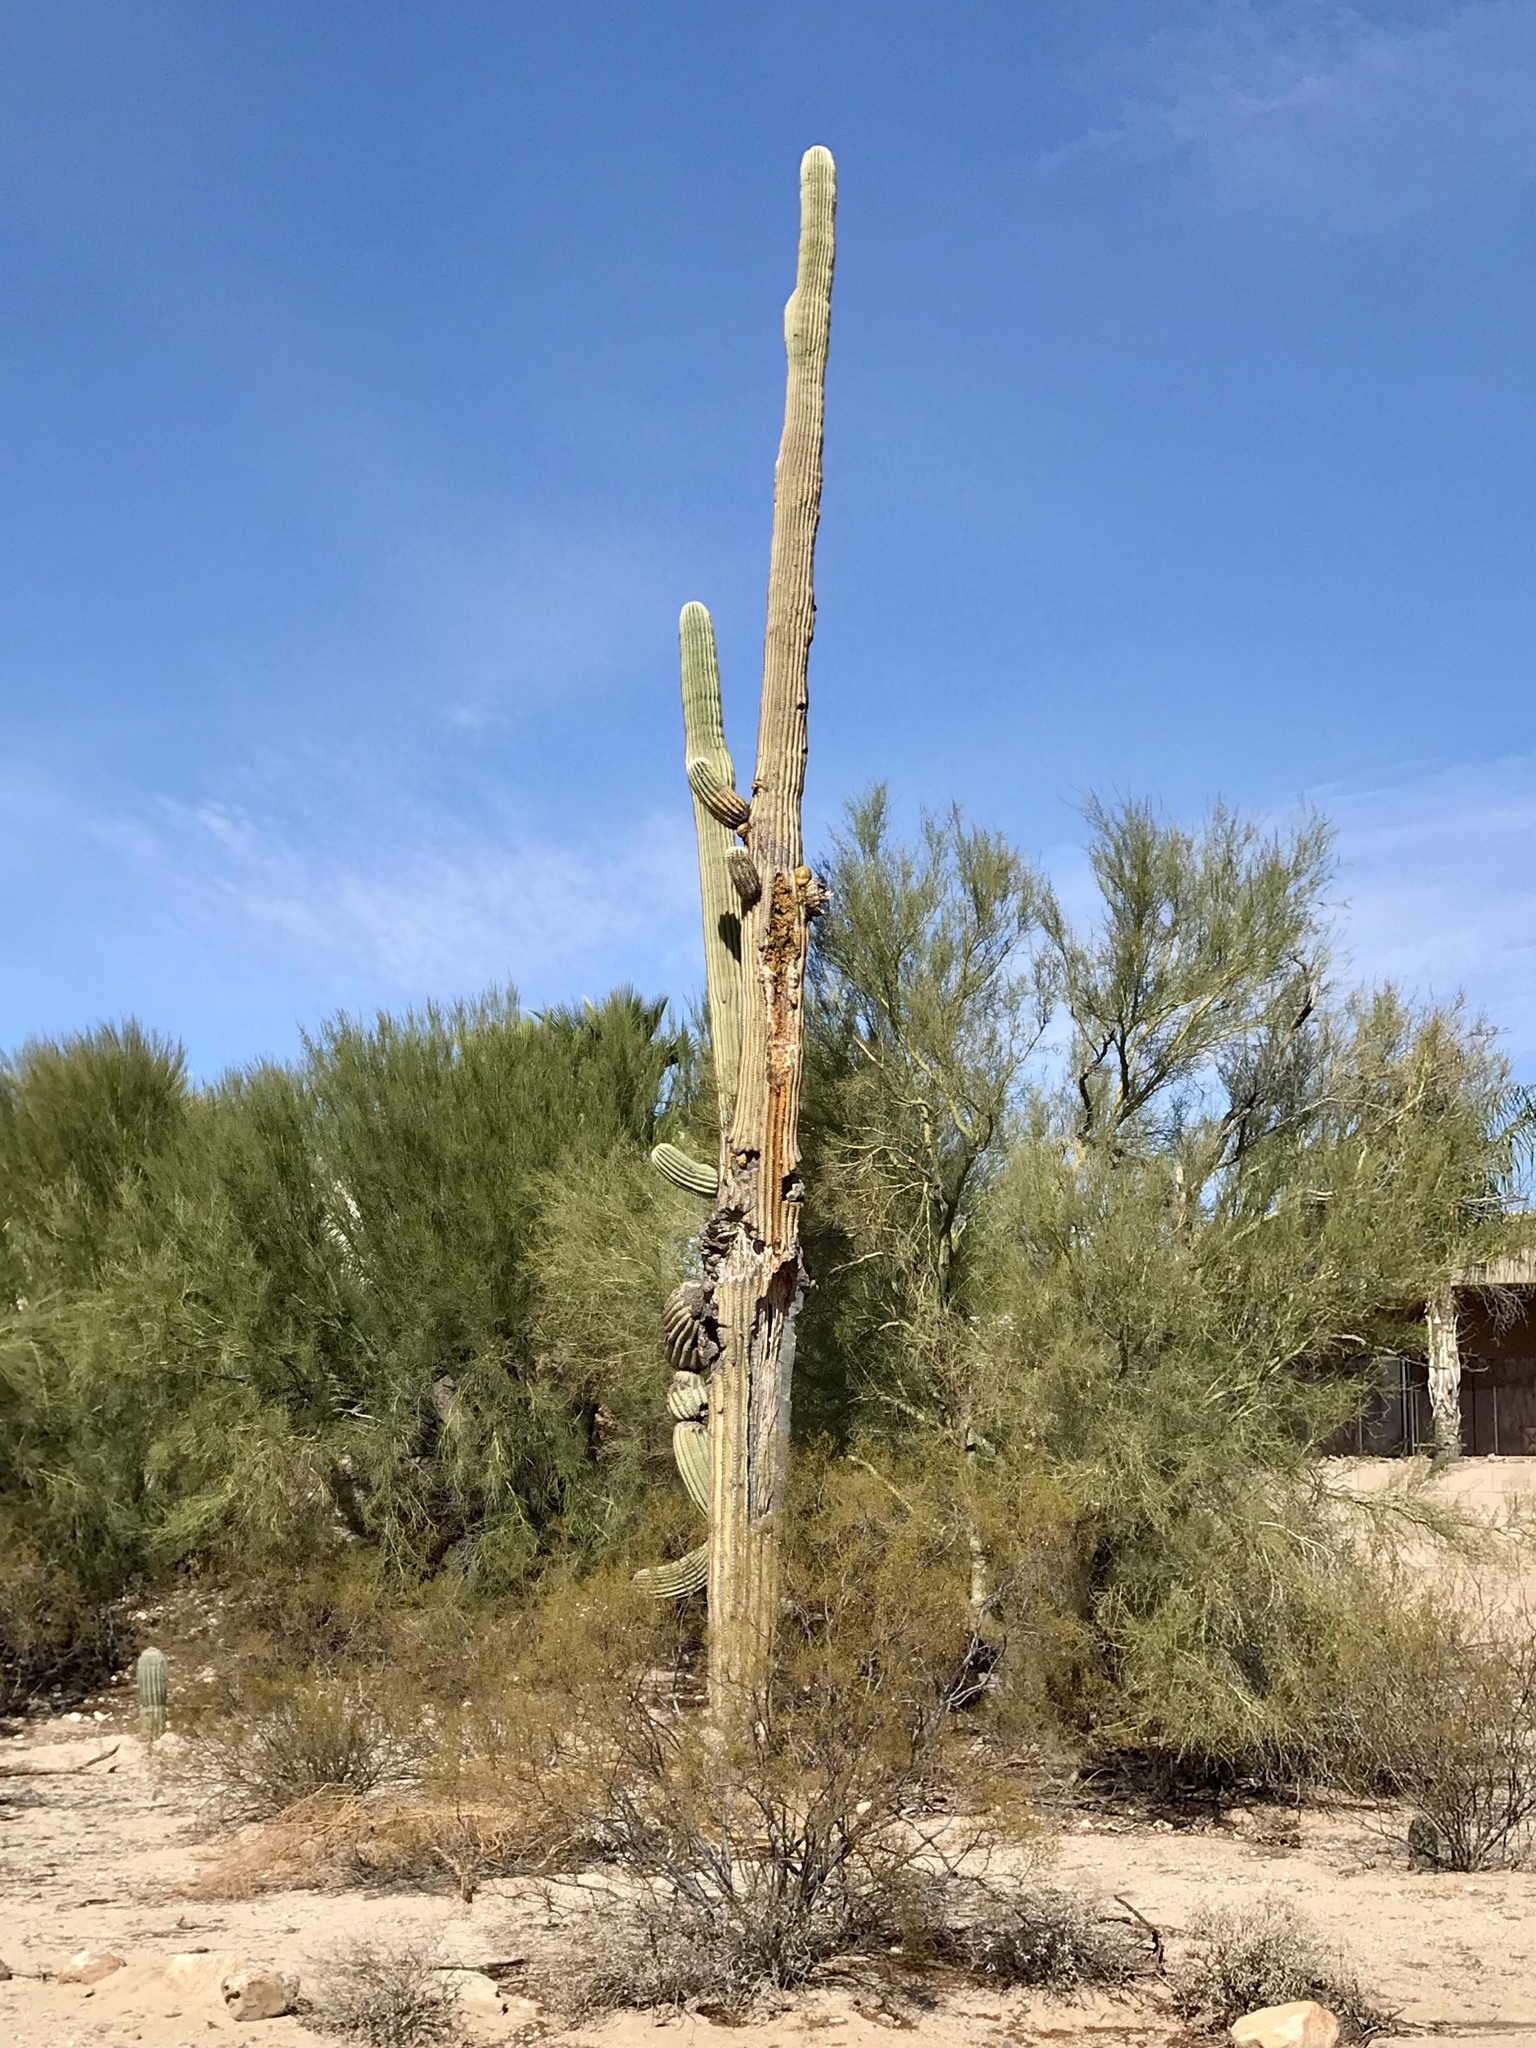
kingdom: Plantae
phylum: Tracheophyta
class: Magnoliopsida
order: Caryophyllales
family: Cactaceae
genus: Carnegiea
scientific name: Carnegiea gigantea
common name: Saguaro
